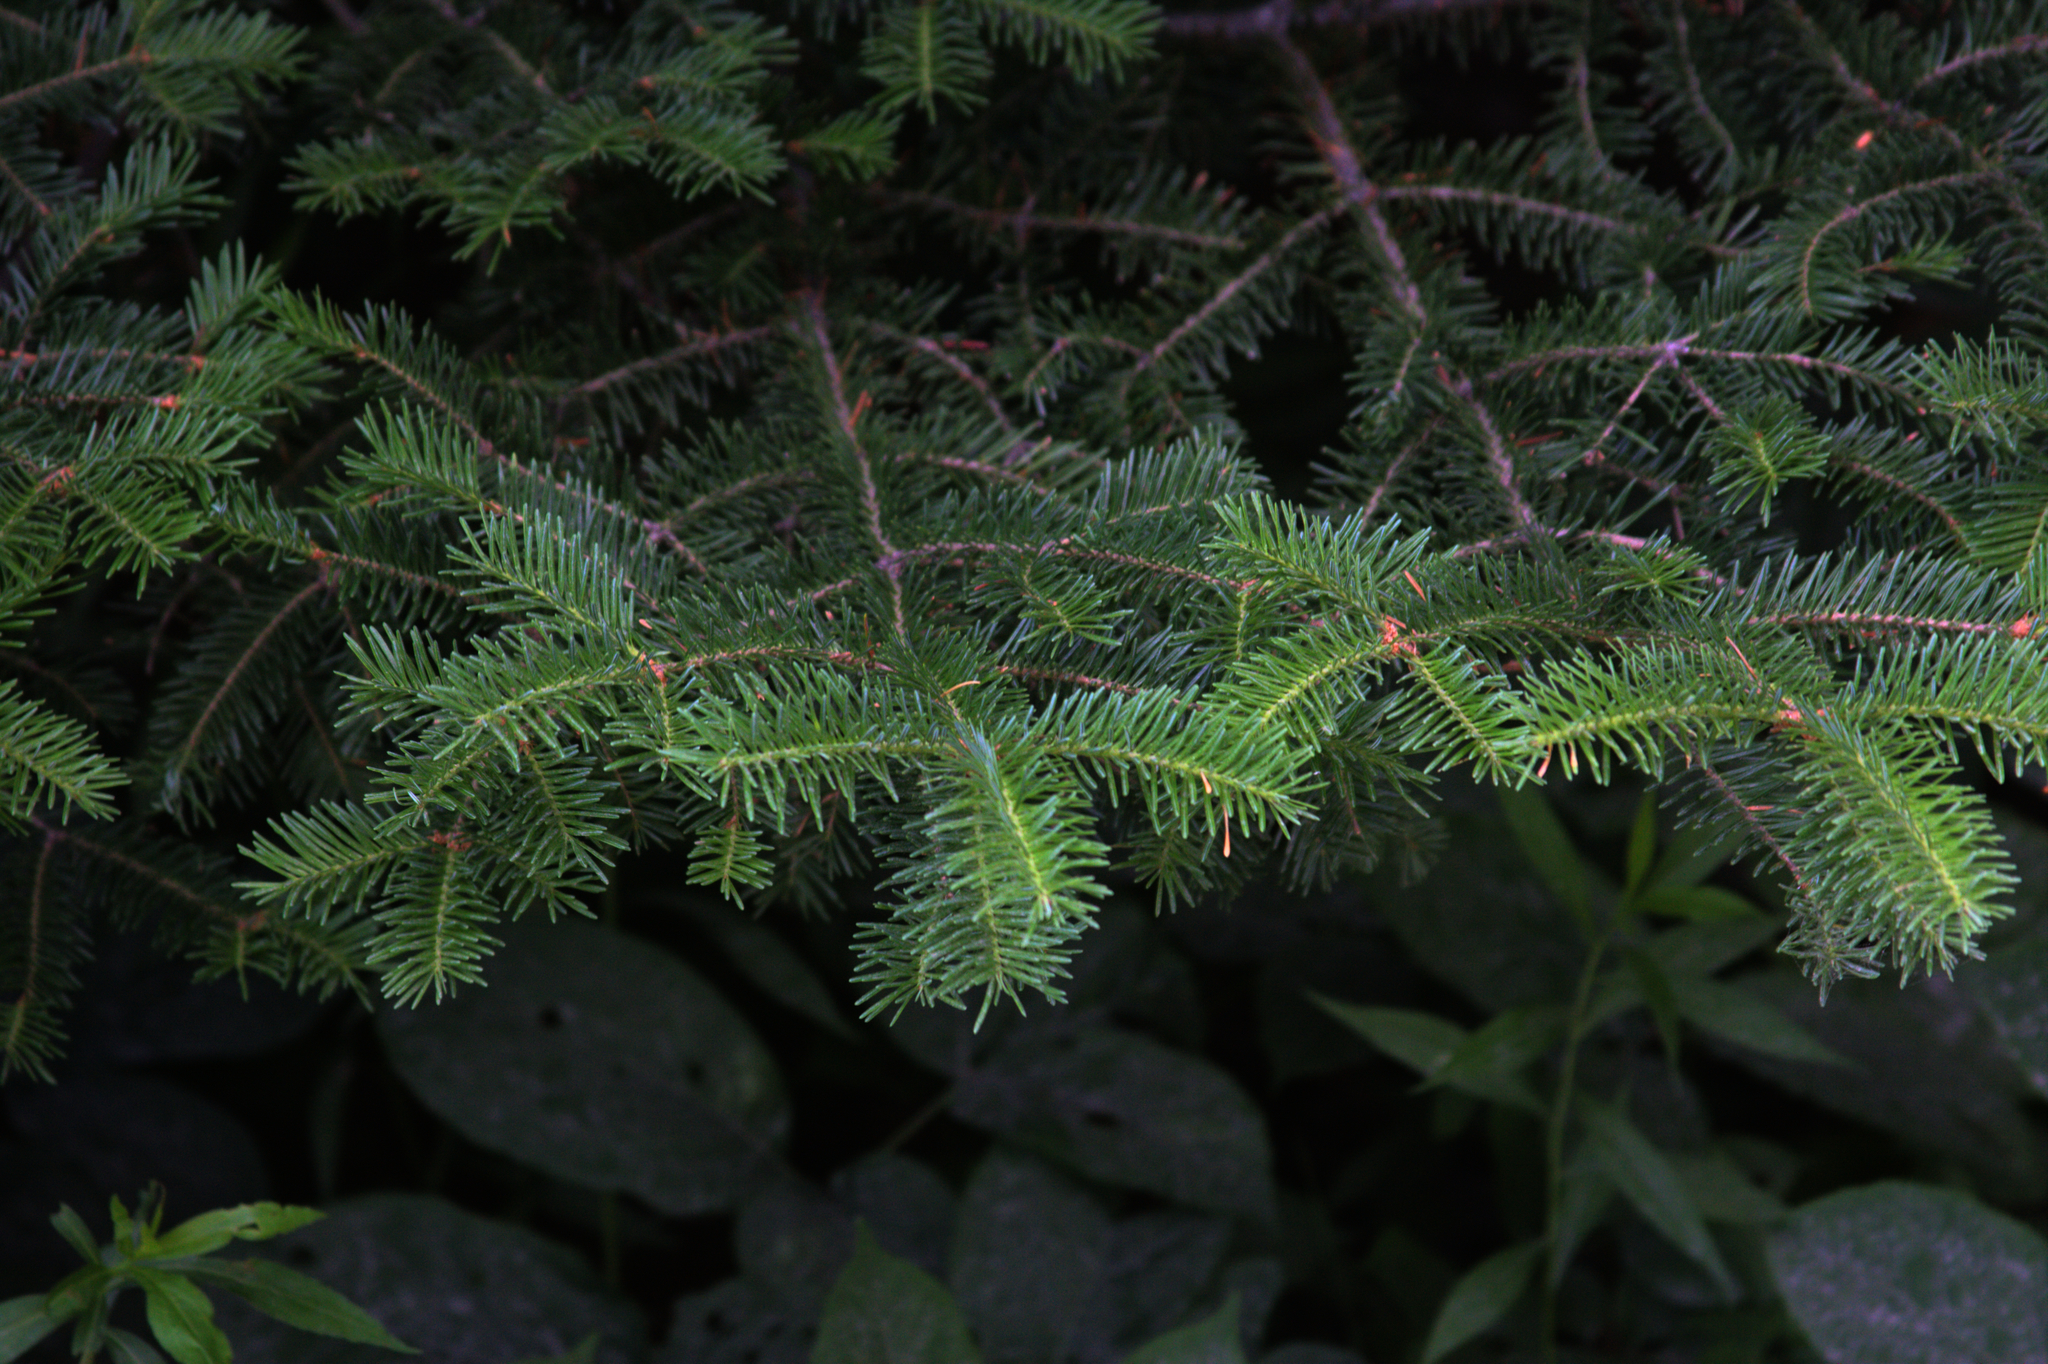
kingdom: Plantae
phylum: Tracheophyta
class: Pinopsida
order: Pinales
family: Pinaceae
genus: Abies
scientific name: Abies balsamea
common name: Balsam fir
